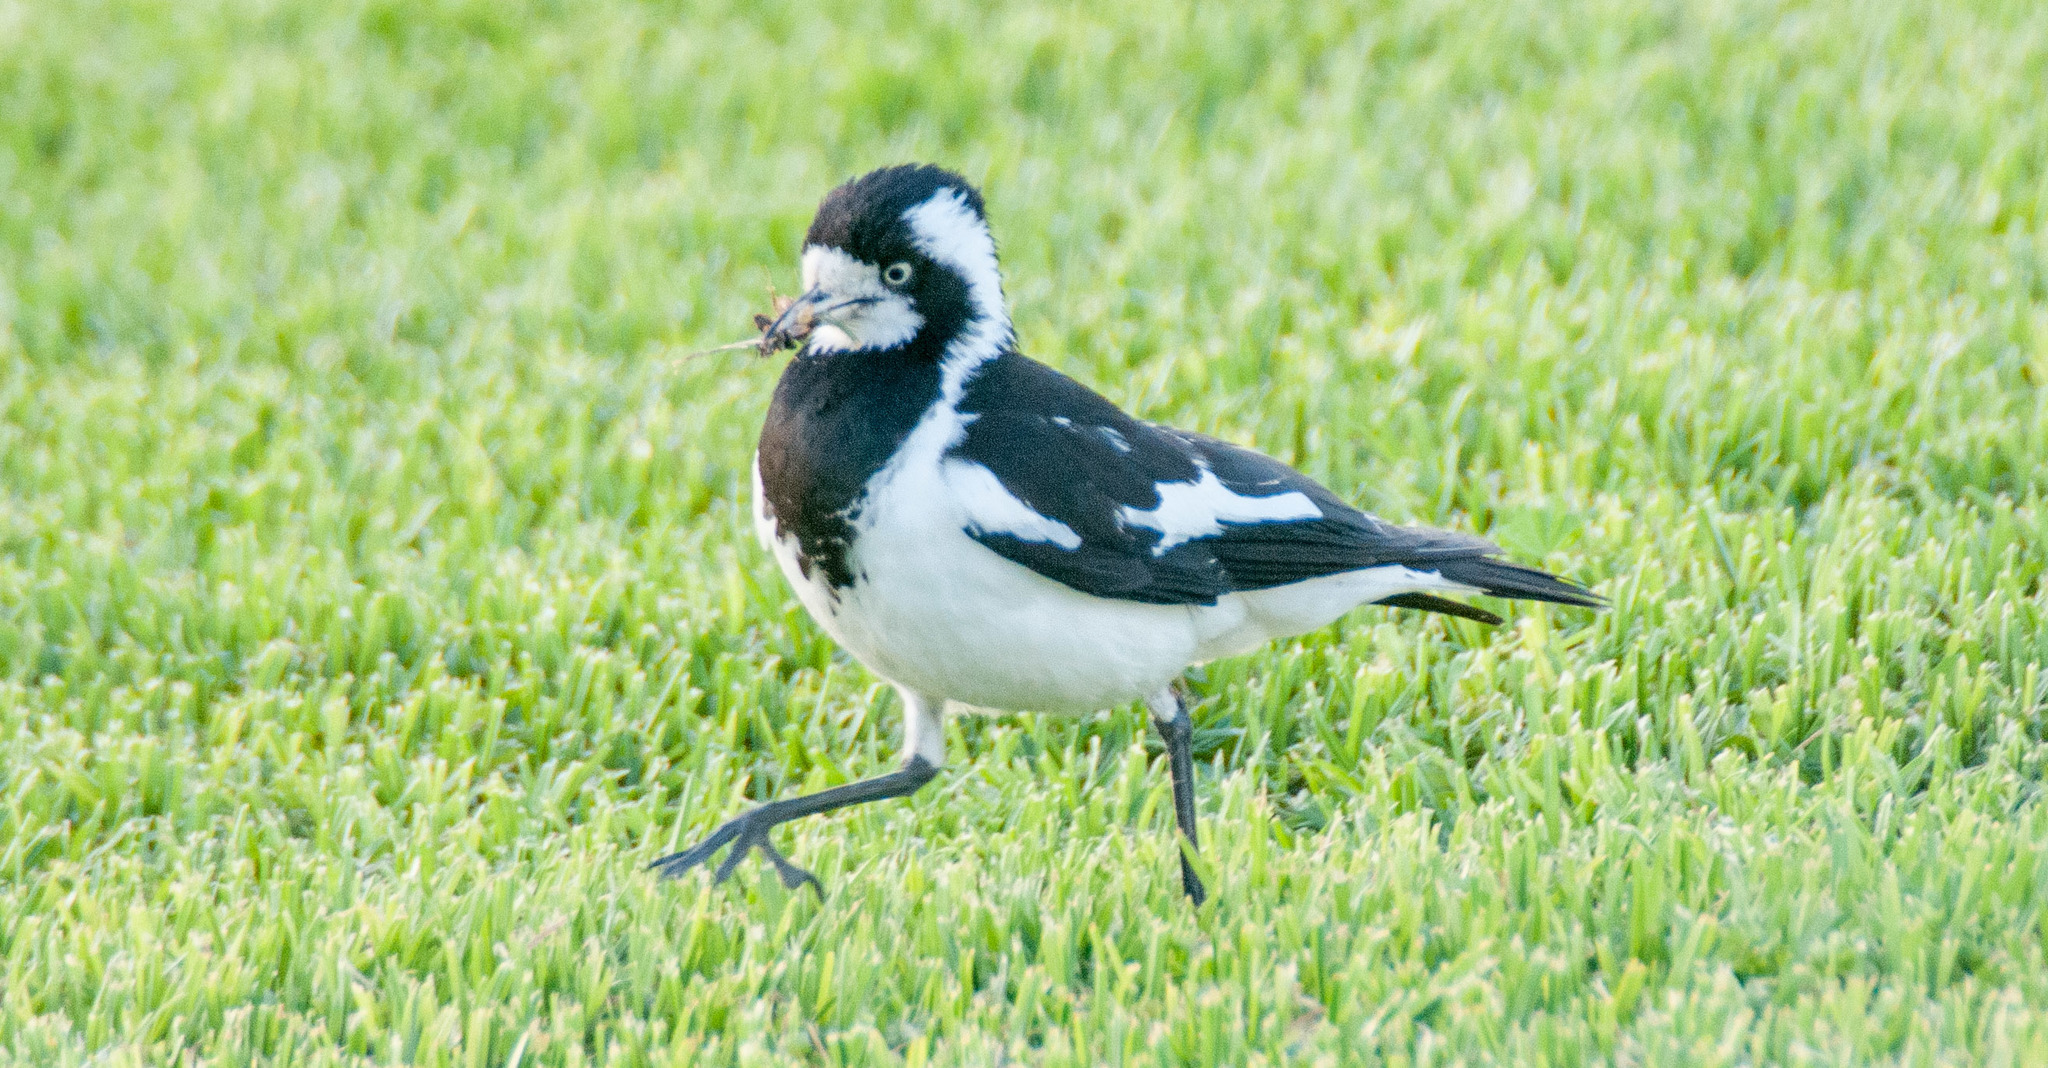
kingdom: Animalia
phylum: Chordata
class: Aves
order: Passeriformes
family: Monarchidae
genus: Grallina
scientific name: Grallina cyanoleuca
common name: Magpie-lark
